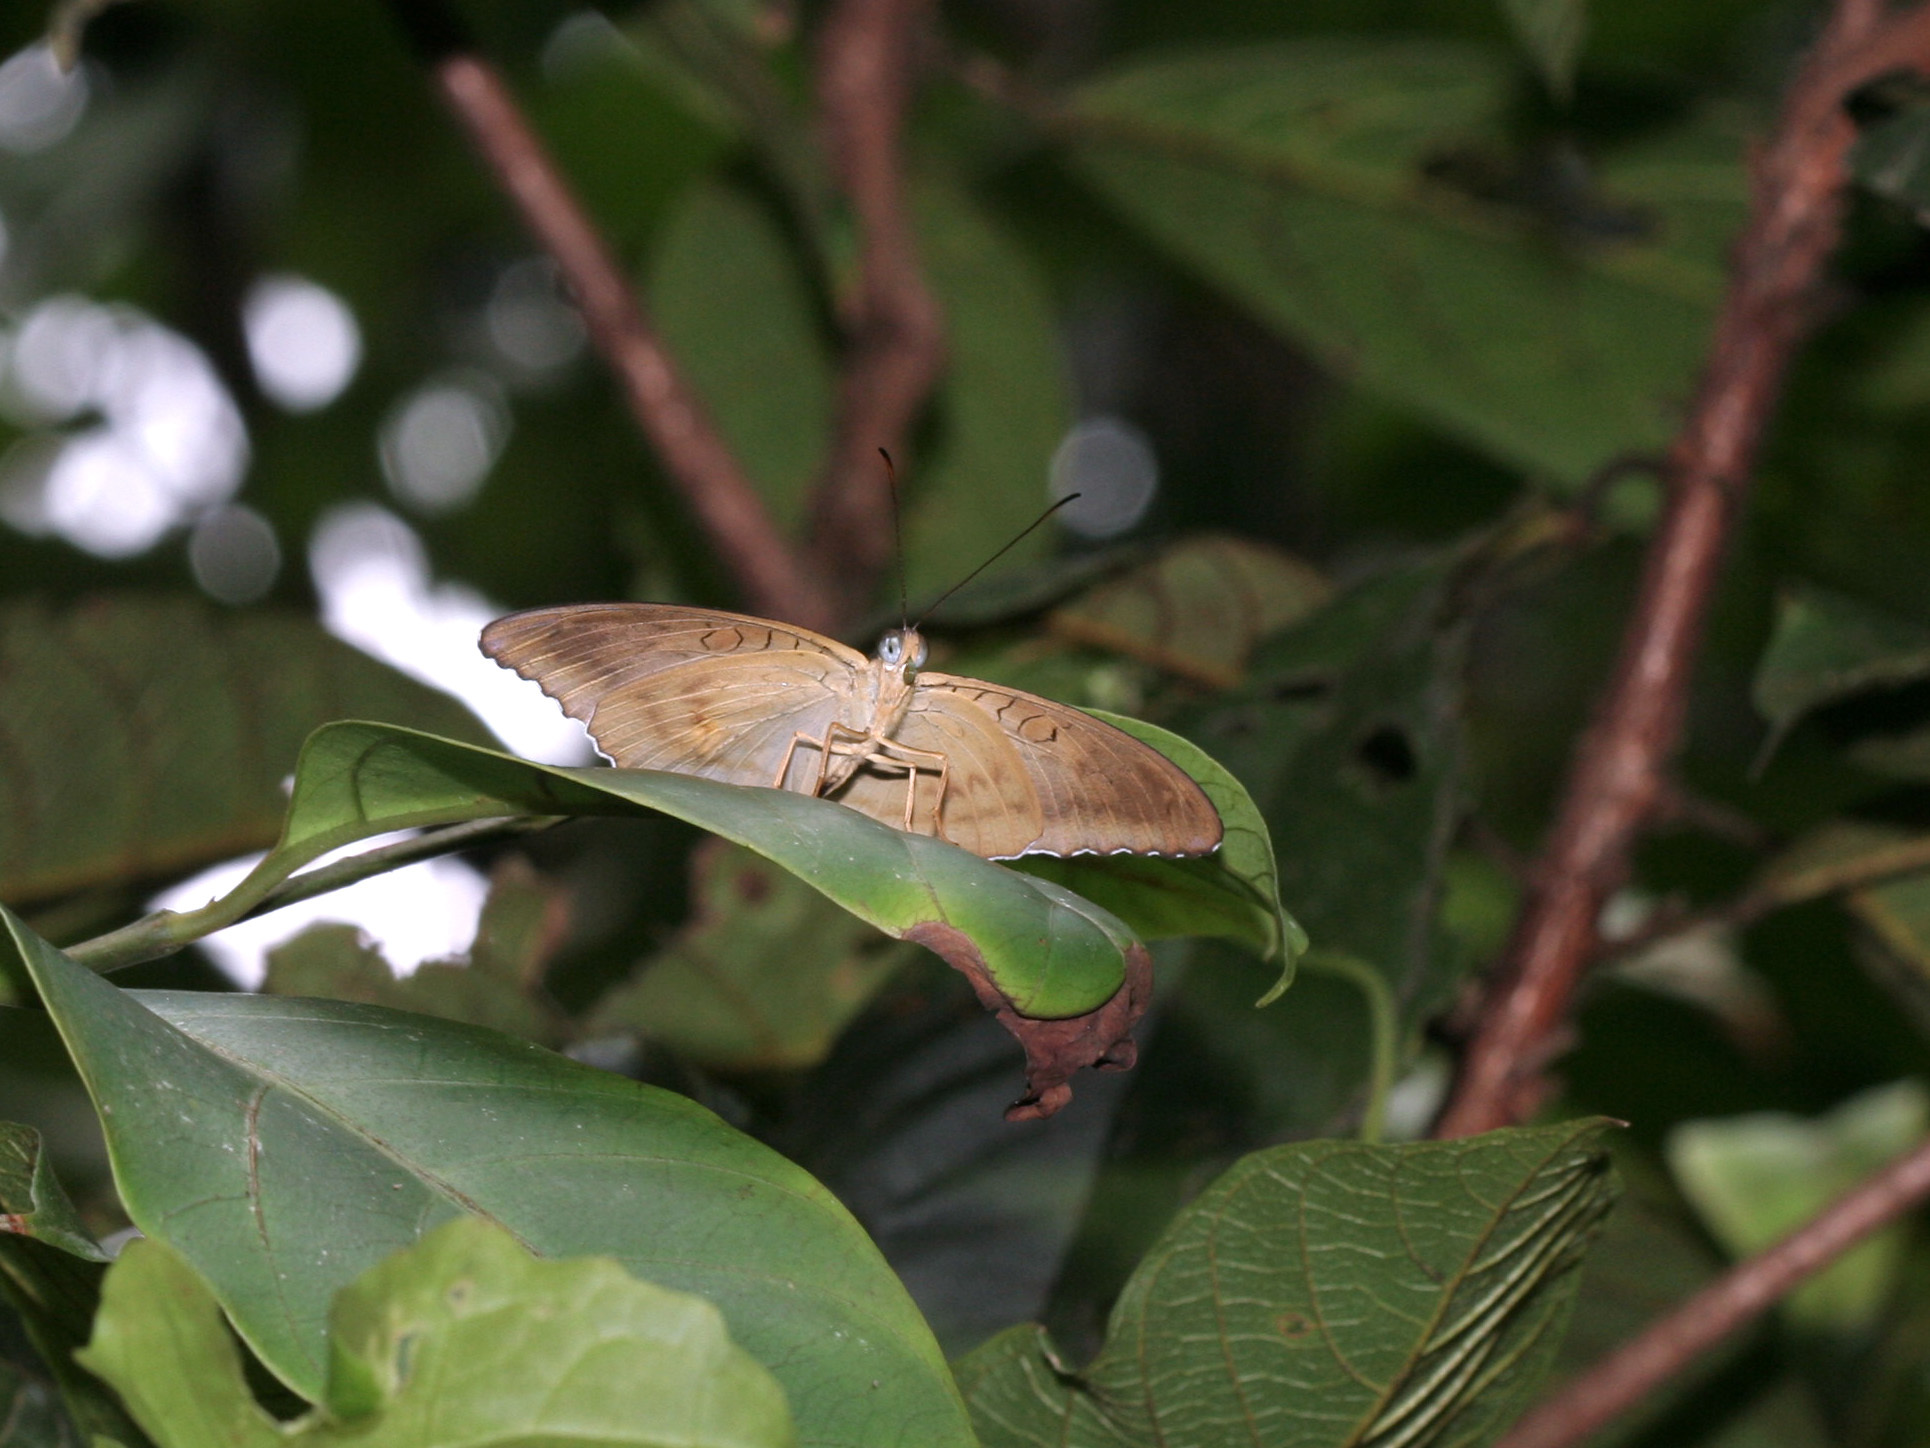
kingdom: Animalia
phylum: Arthropoda
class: Insecta
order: Lepidoptera
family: Nymphalidae
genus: Tanaecia
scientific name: Tanaecia iapis
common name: Horsfield's baron
